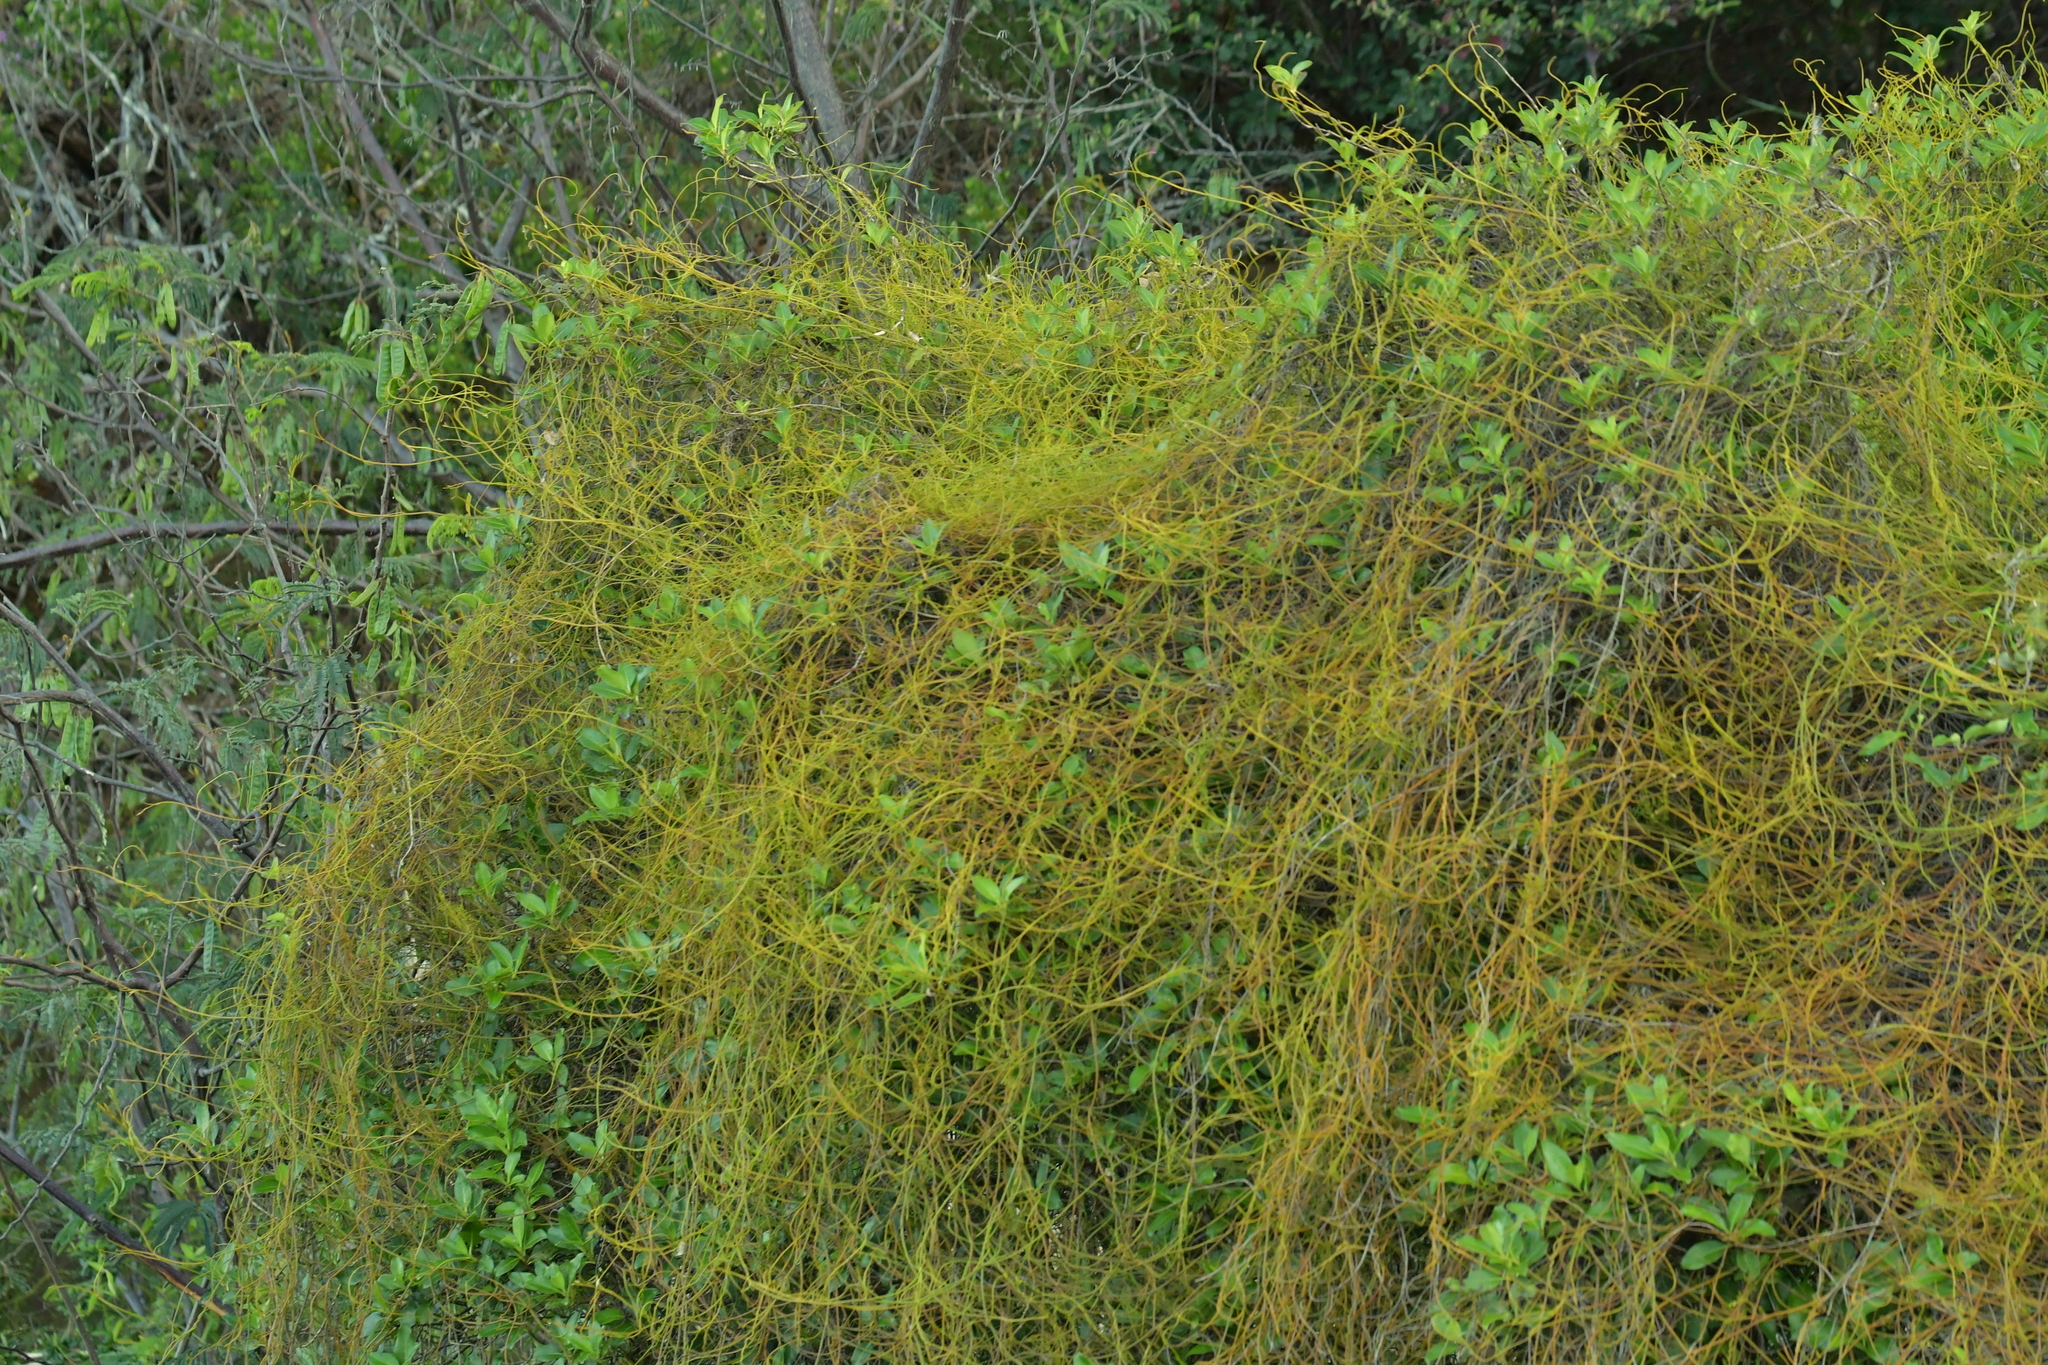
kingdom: Plantae
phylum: Tracheophyta
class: Magnoliopsida
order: Laurales
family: Lauraceae
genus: Cassytha
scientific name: Cassytha paniculata
